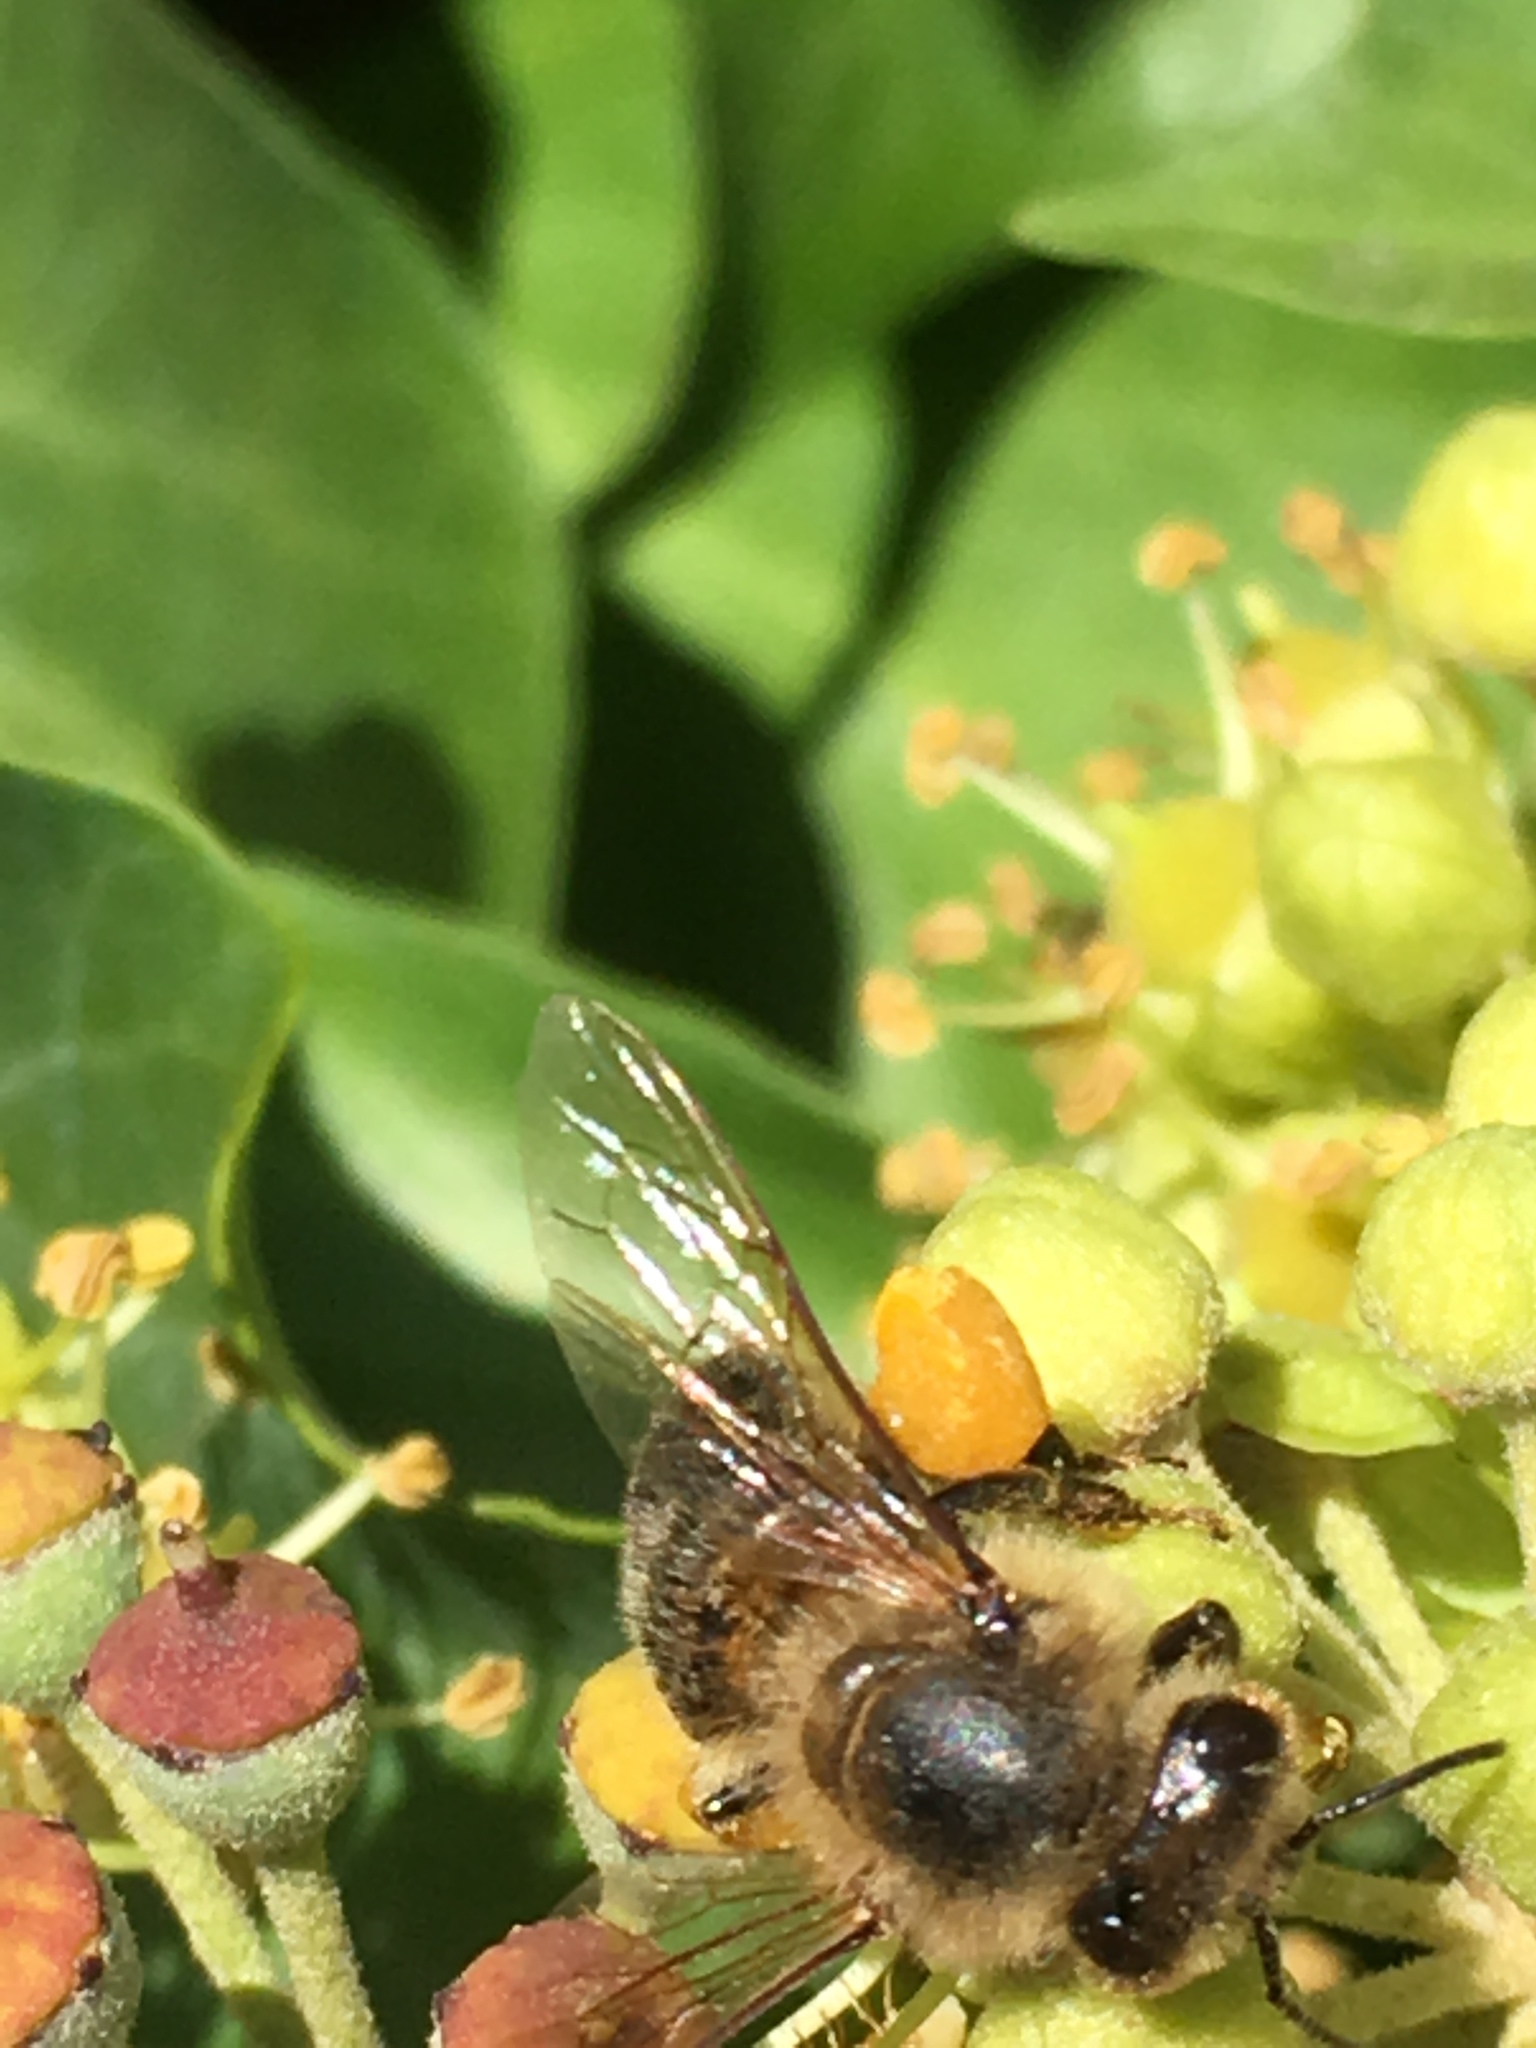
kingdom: Animalia
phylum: Arthropoda
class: Insecta
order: Hymenoptera
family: Apidae
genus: Apis
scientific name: Apis mellifera
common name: Honey bee
